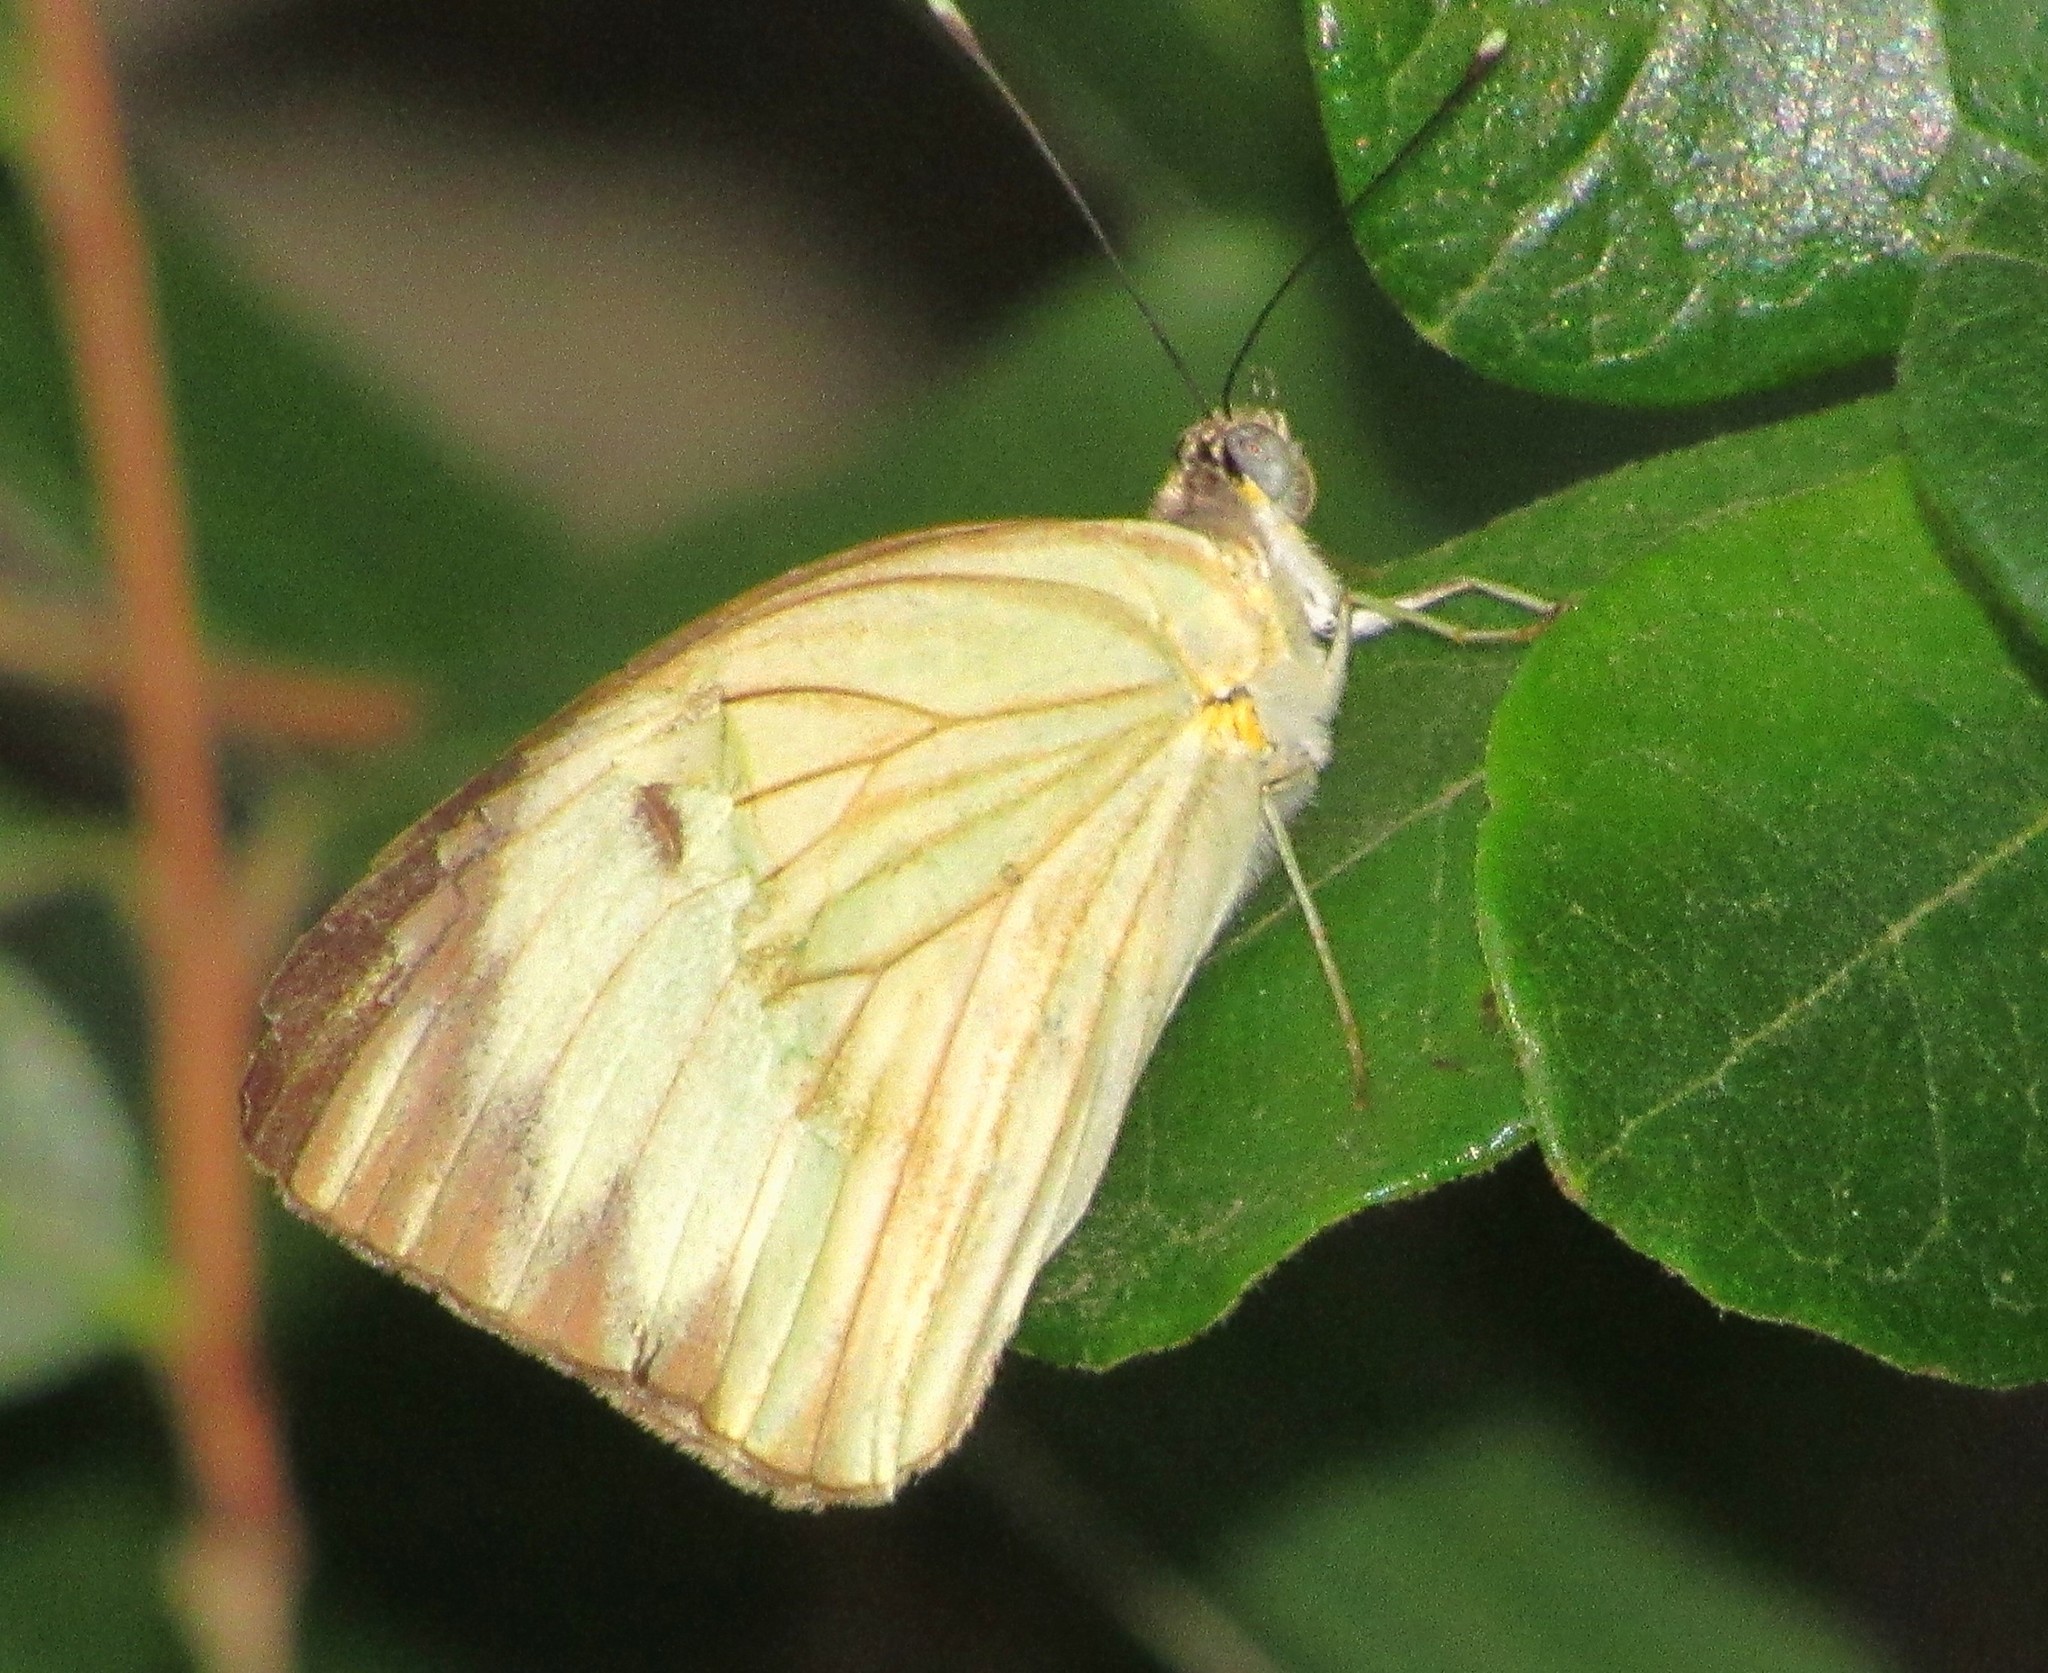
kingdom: Animalia
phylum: Arthropoda
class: Insecta
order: Lepidoptera
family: Pieridae
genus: Ascia
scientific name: Ascia monuste
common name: Great southern white
